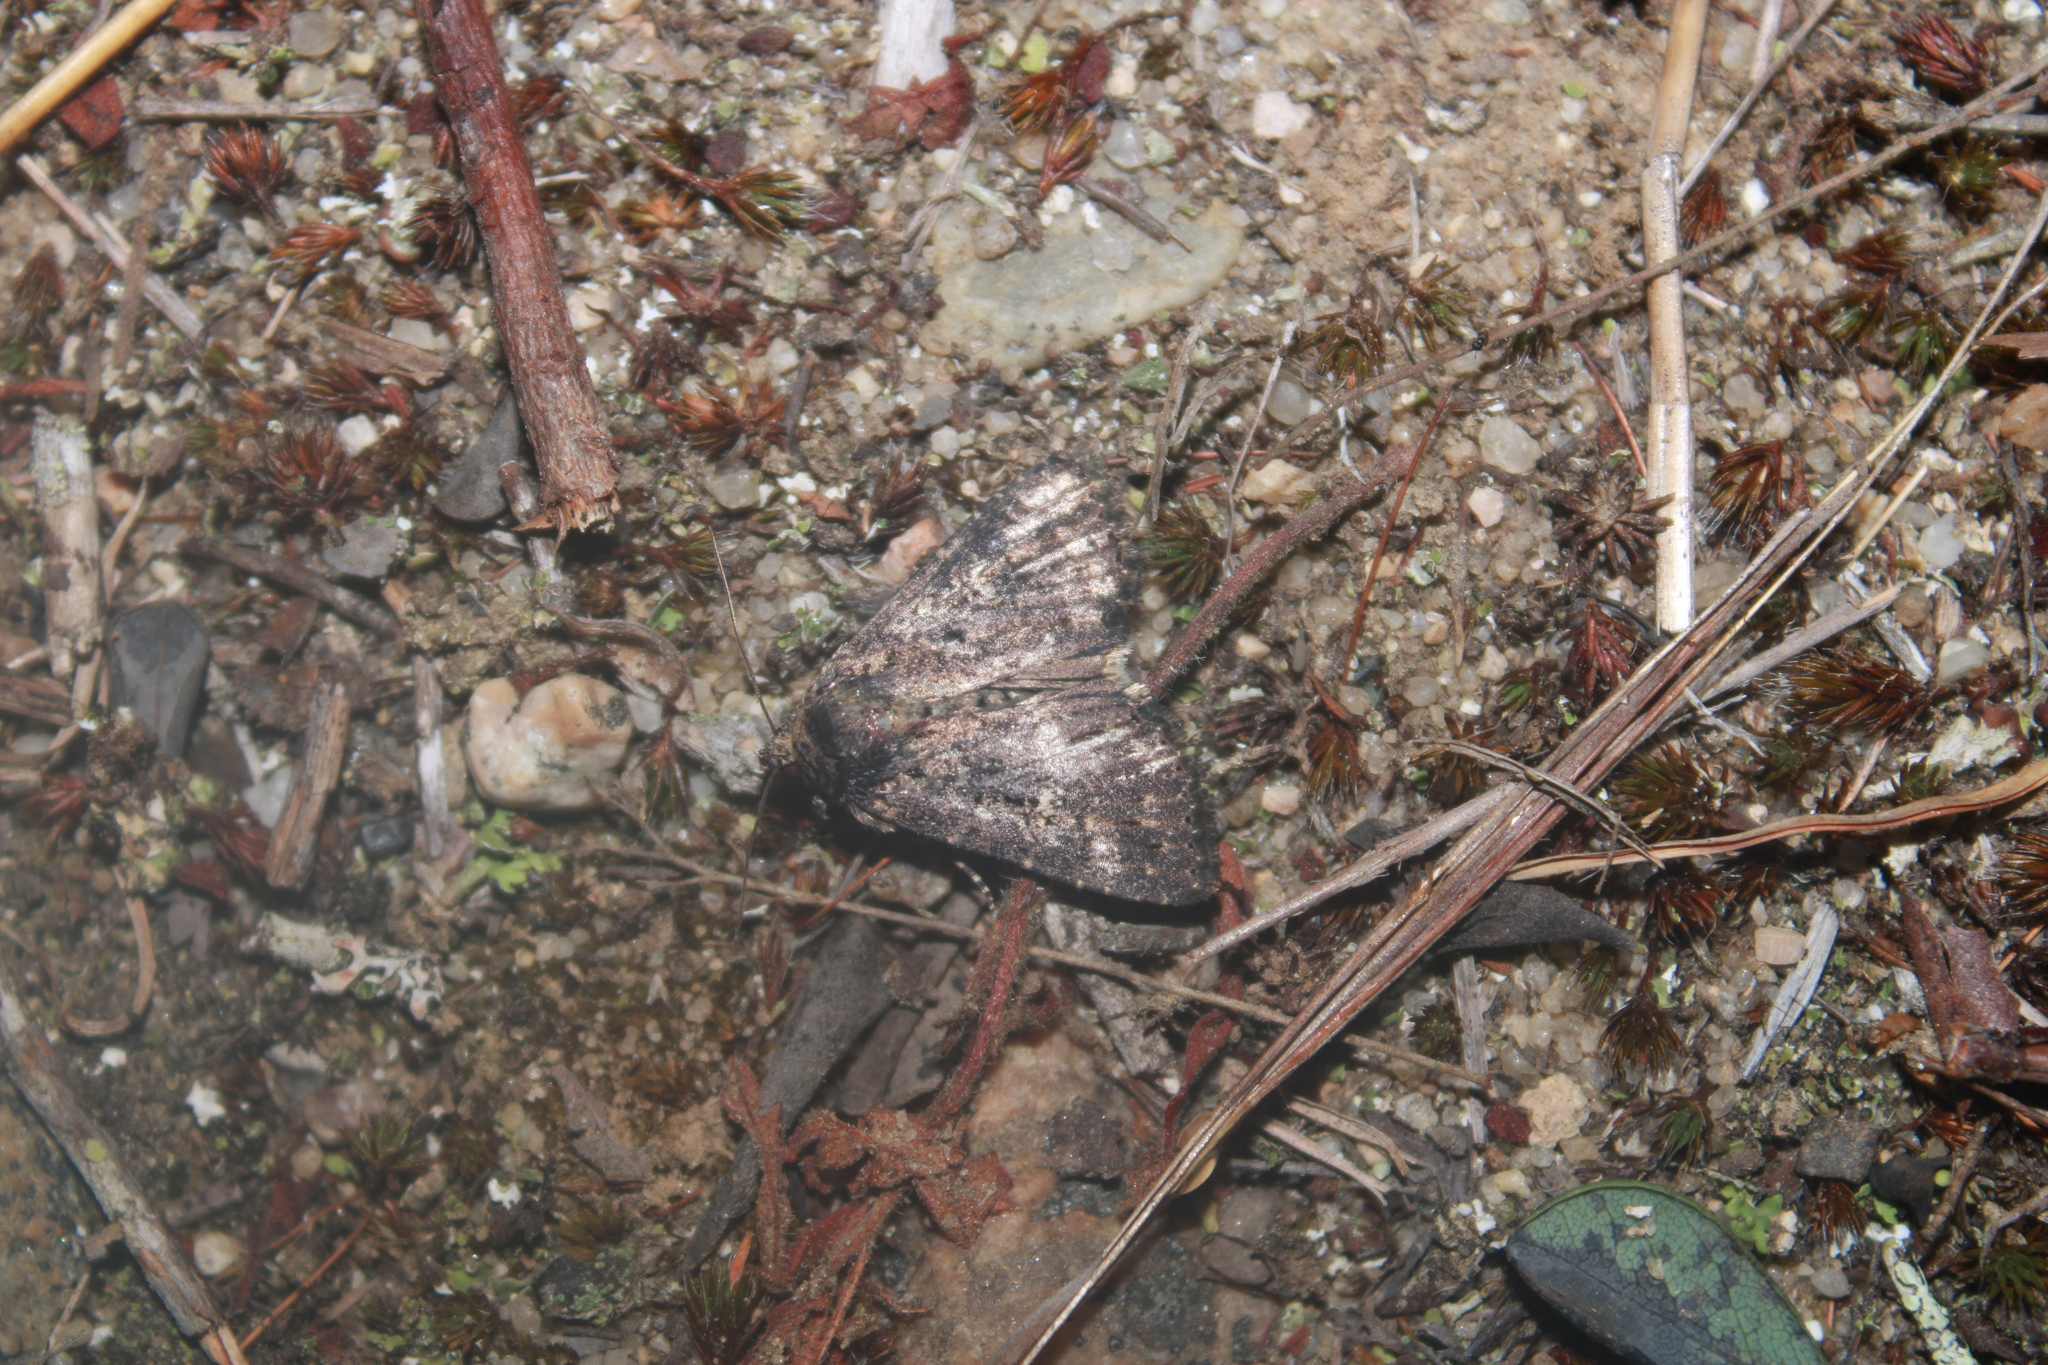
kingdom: Animalia
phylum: Arthropoda
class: Insecta
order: Lepidoptera
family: Noctuidae
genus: Condica
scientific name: Condica vecors
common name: Dusky groundling
